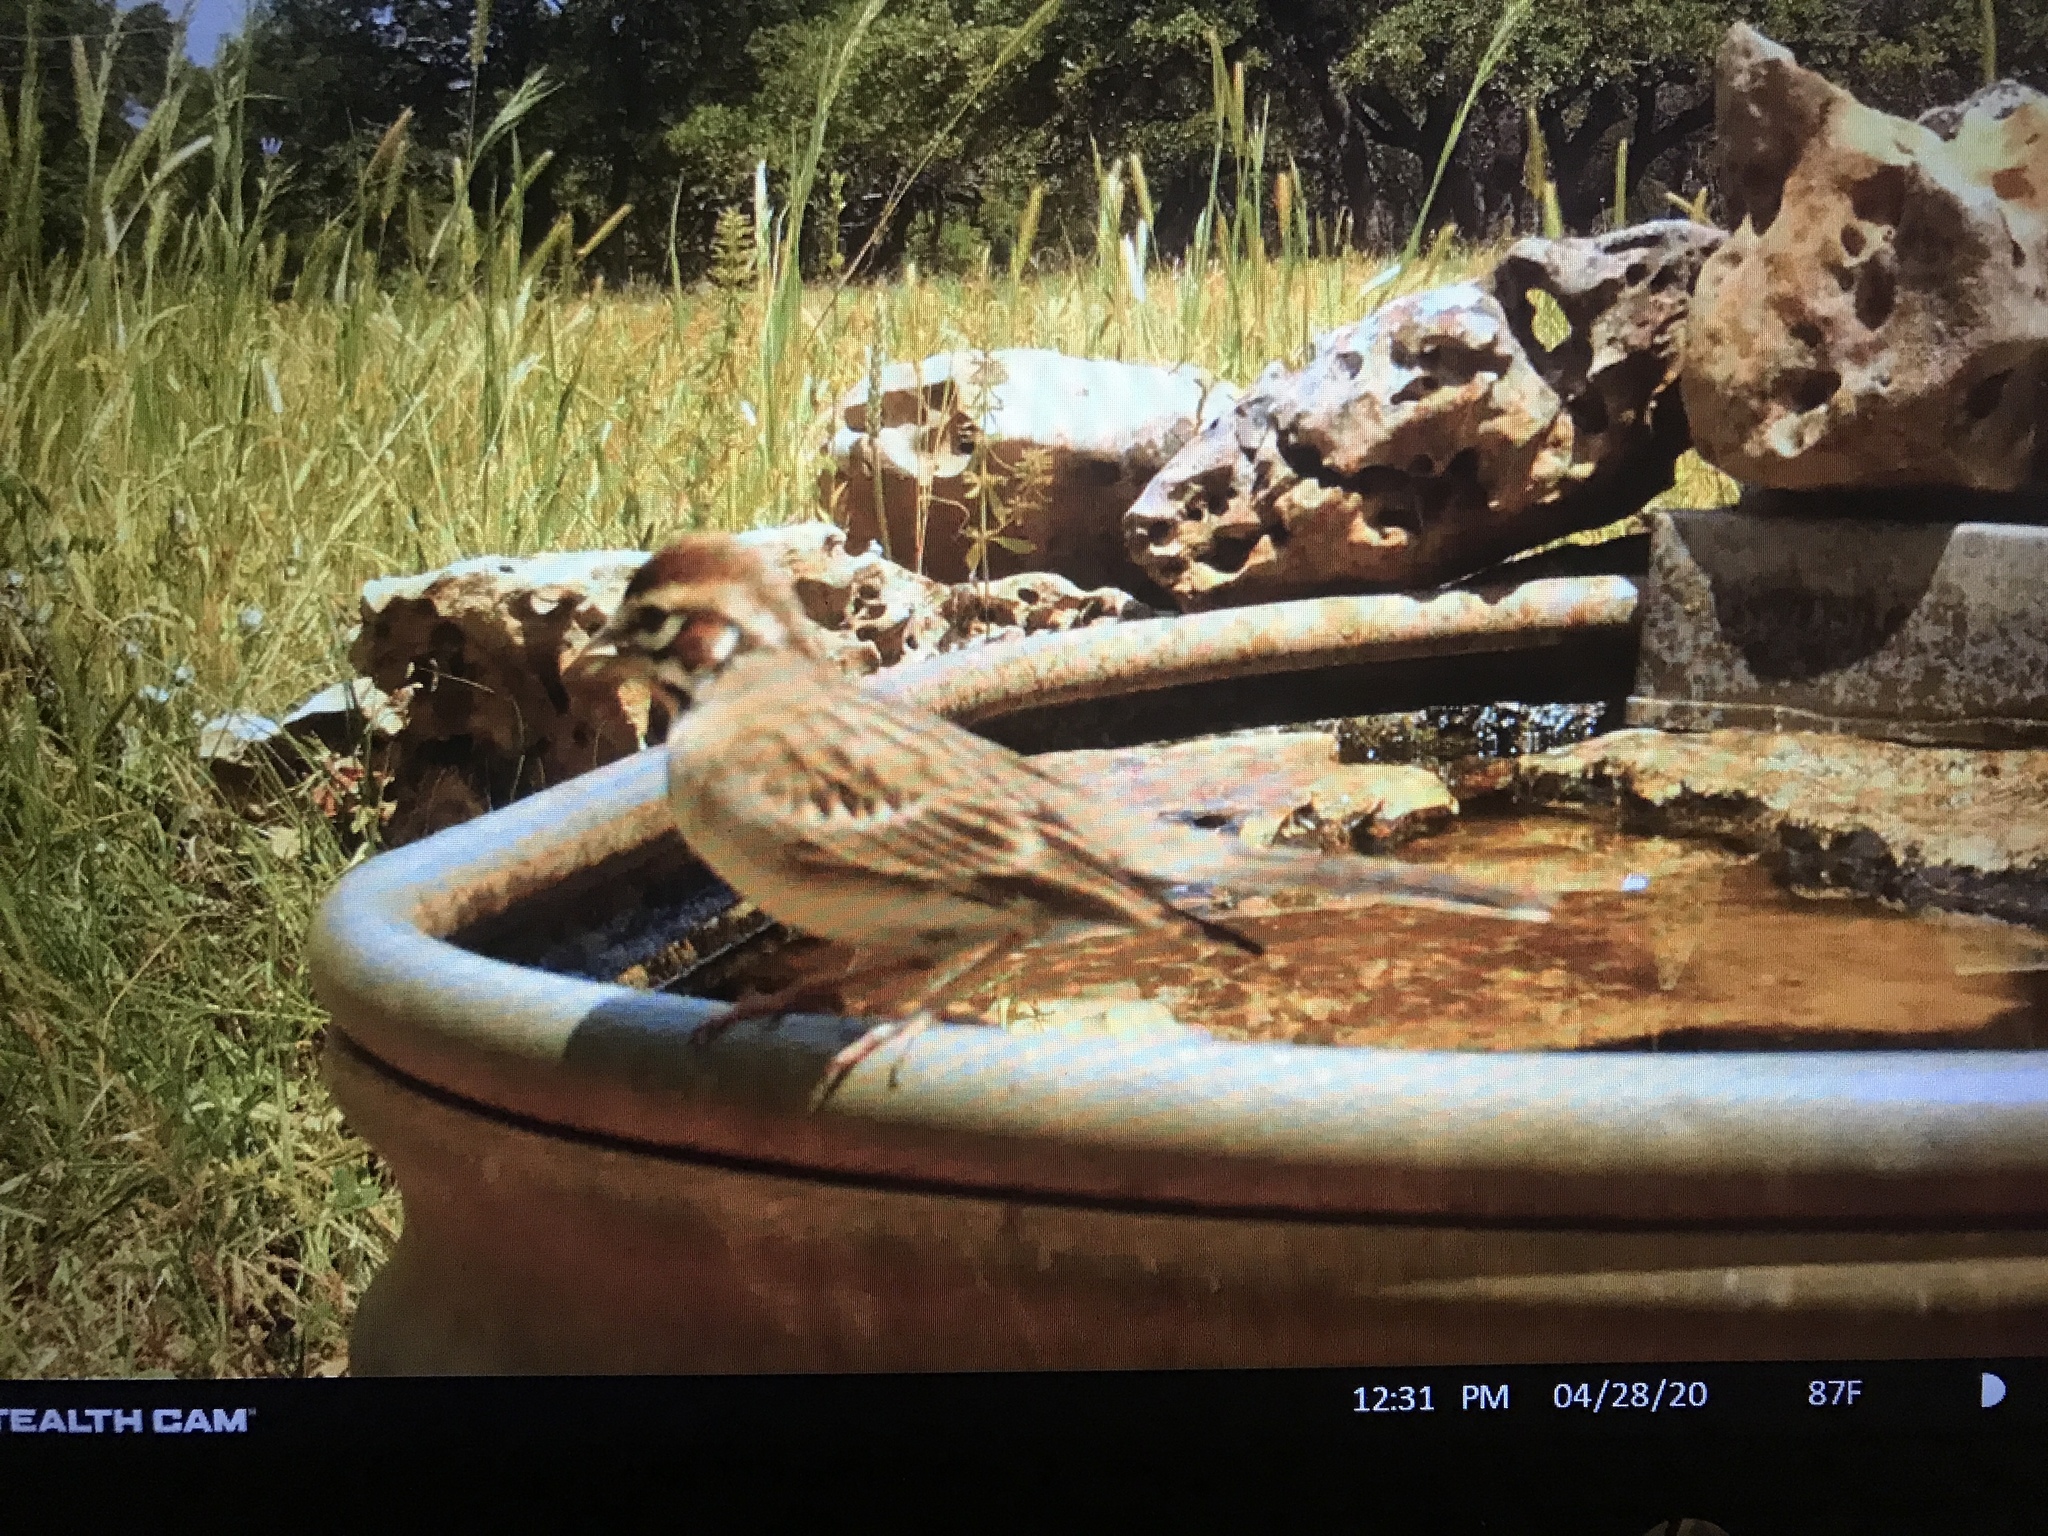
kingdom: Animalia
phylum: Chordata
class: Aves
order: Passeriformes
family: Passerellidae
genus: Chondestes
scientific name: Chondestes grammacus
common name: Lark sparrow
